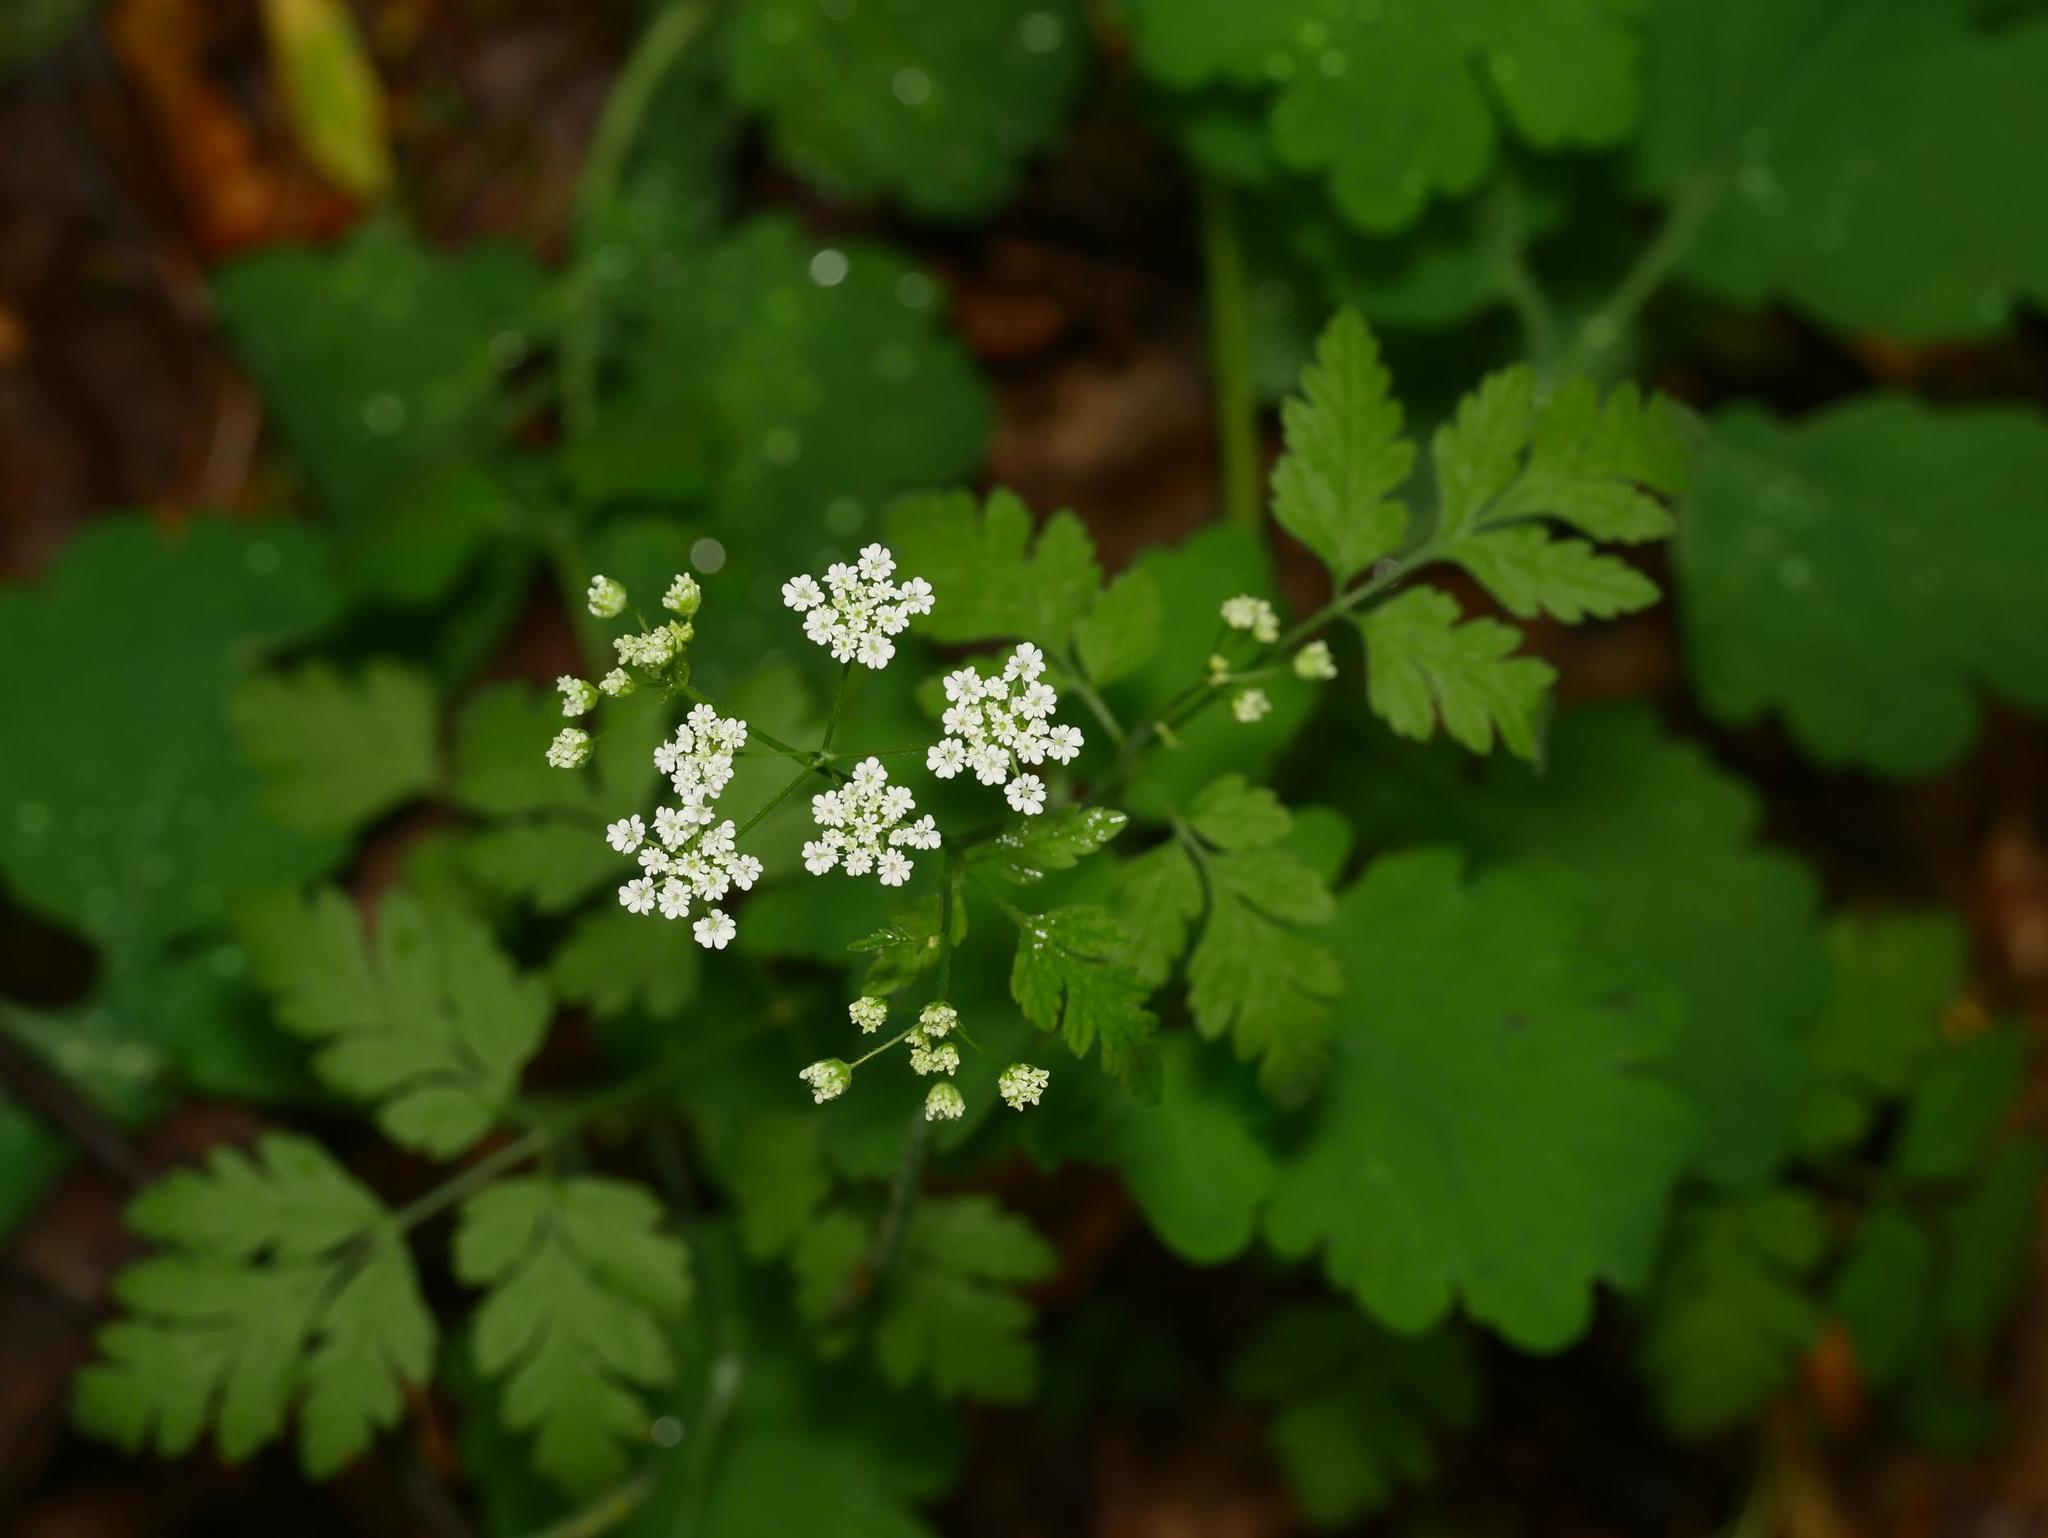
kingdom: Plantae
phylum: Tracheophyta
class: Magnoliopsida
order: Apiales
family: Apiaceae
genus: Chaerophyllum
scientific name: Chaerophyllum temulum
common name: Rough chervil
